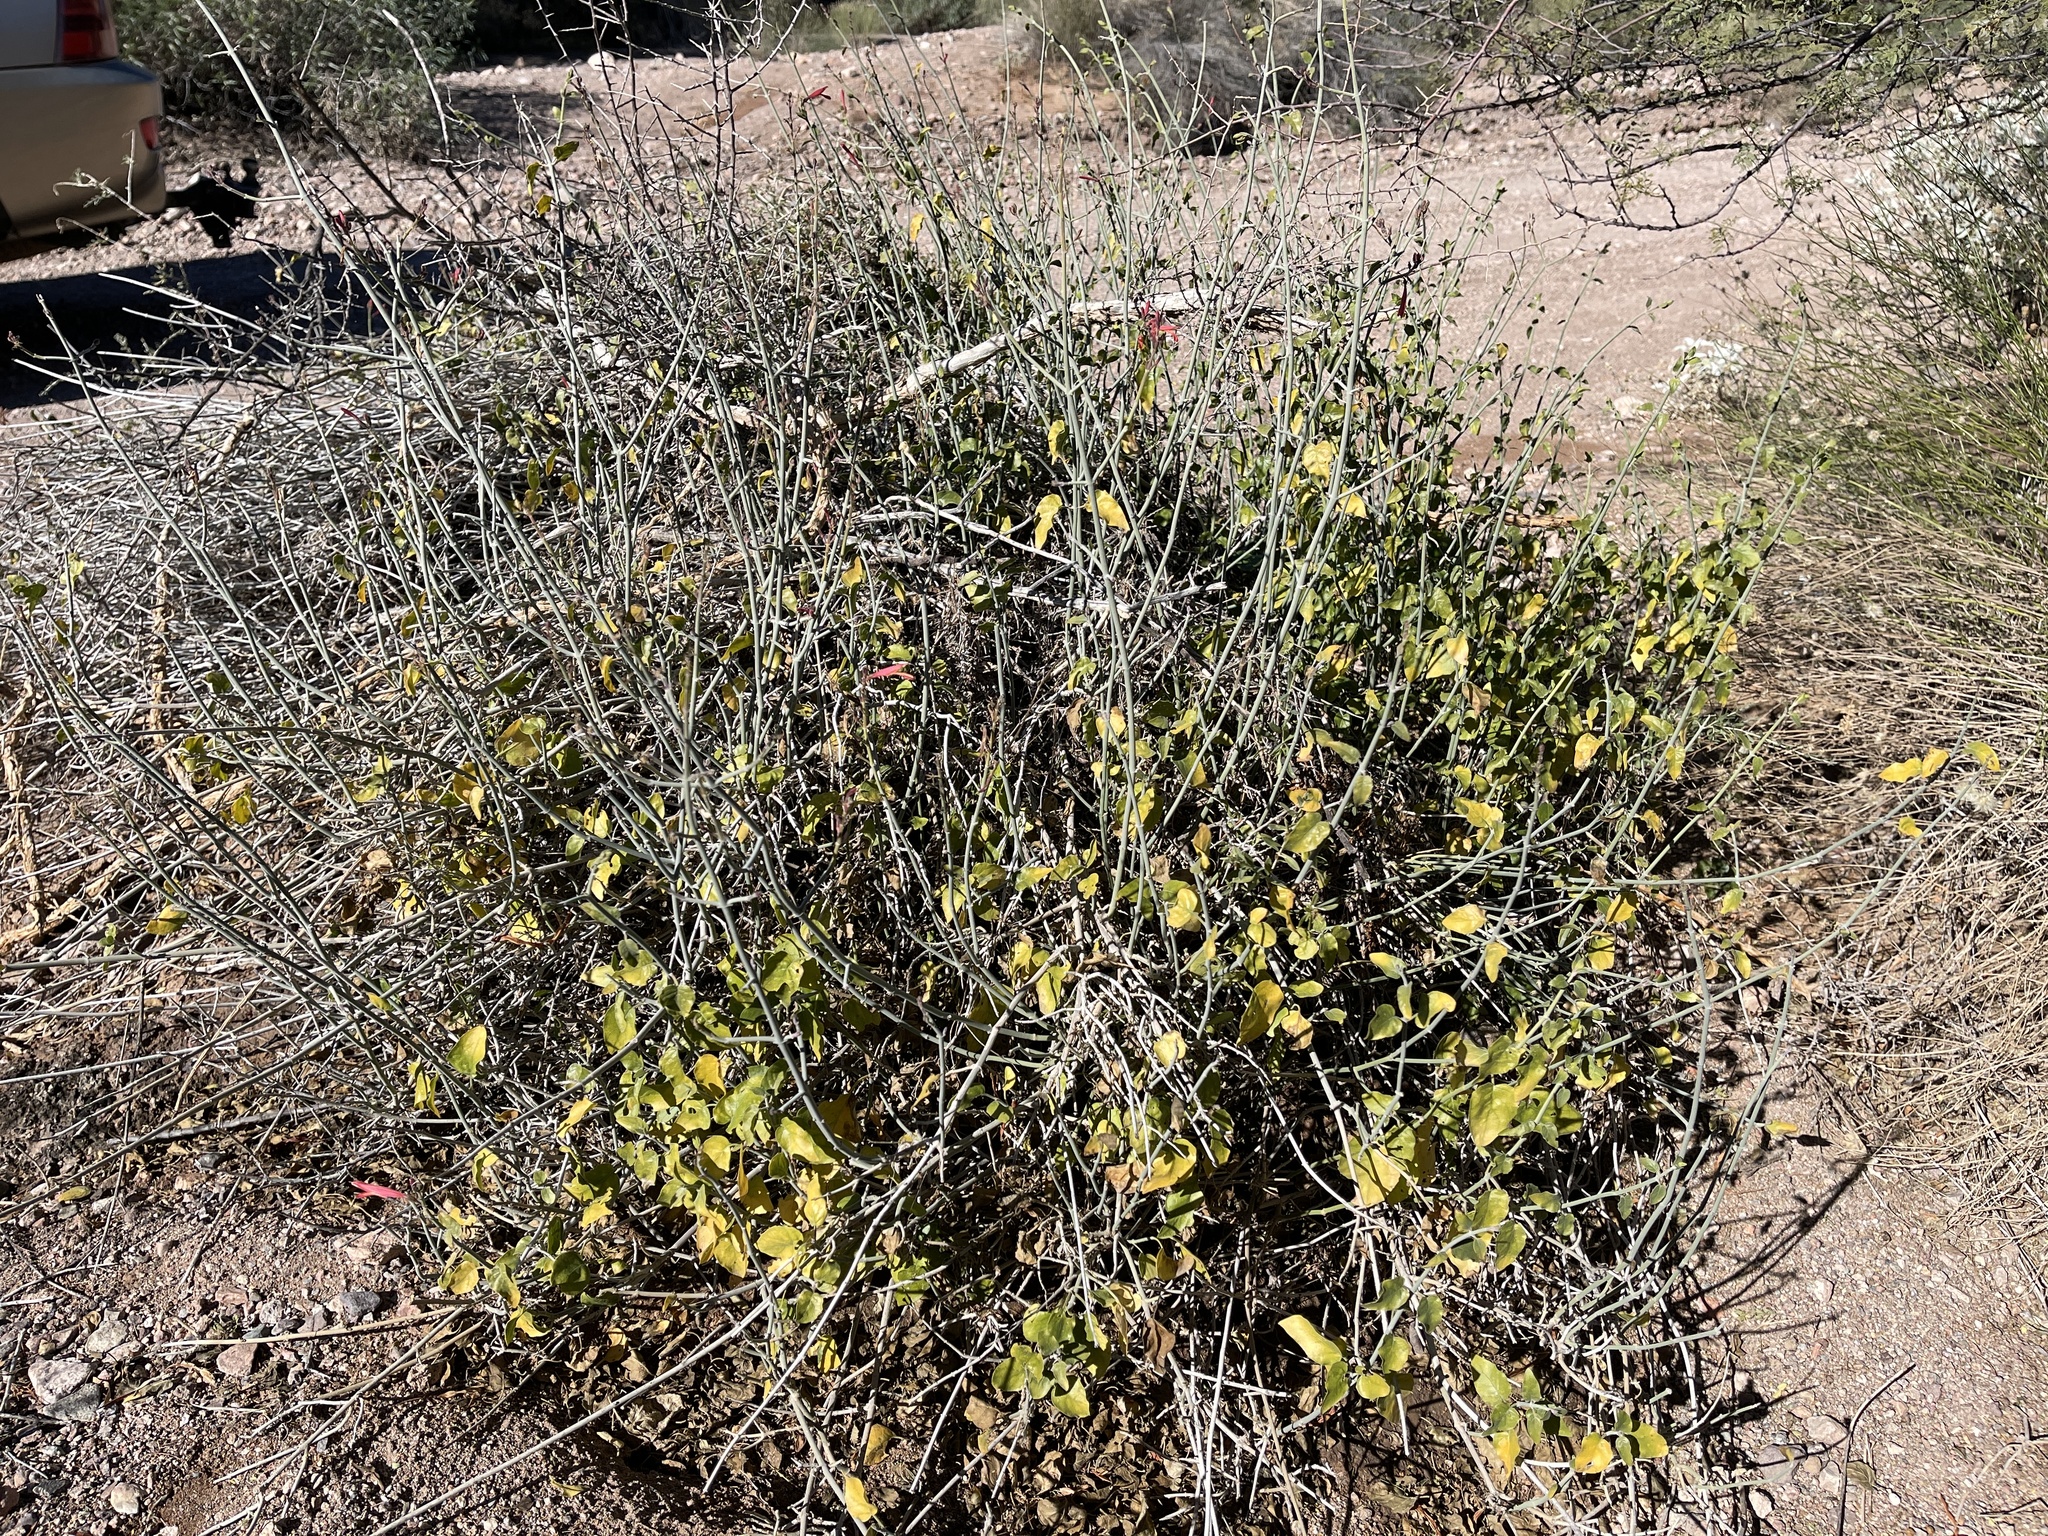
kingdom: Plantae
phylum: Tracheophyta
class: Magnoliopsida
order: Lamiales
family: Acanthaceae
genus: Justicia
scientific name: Justicia californica
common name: Chuparosa-honeysuckle
